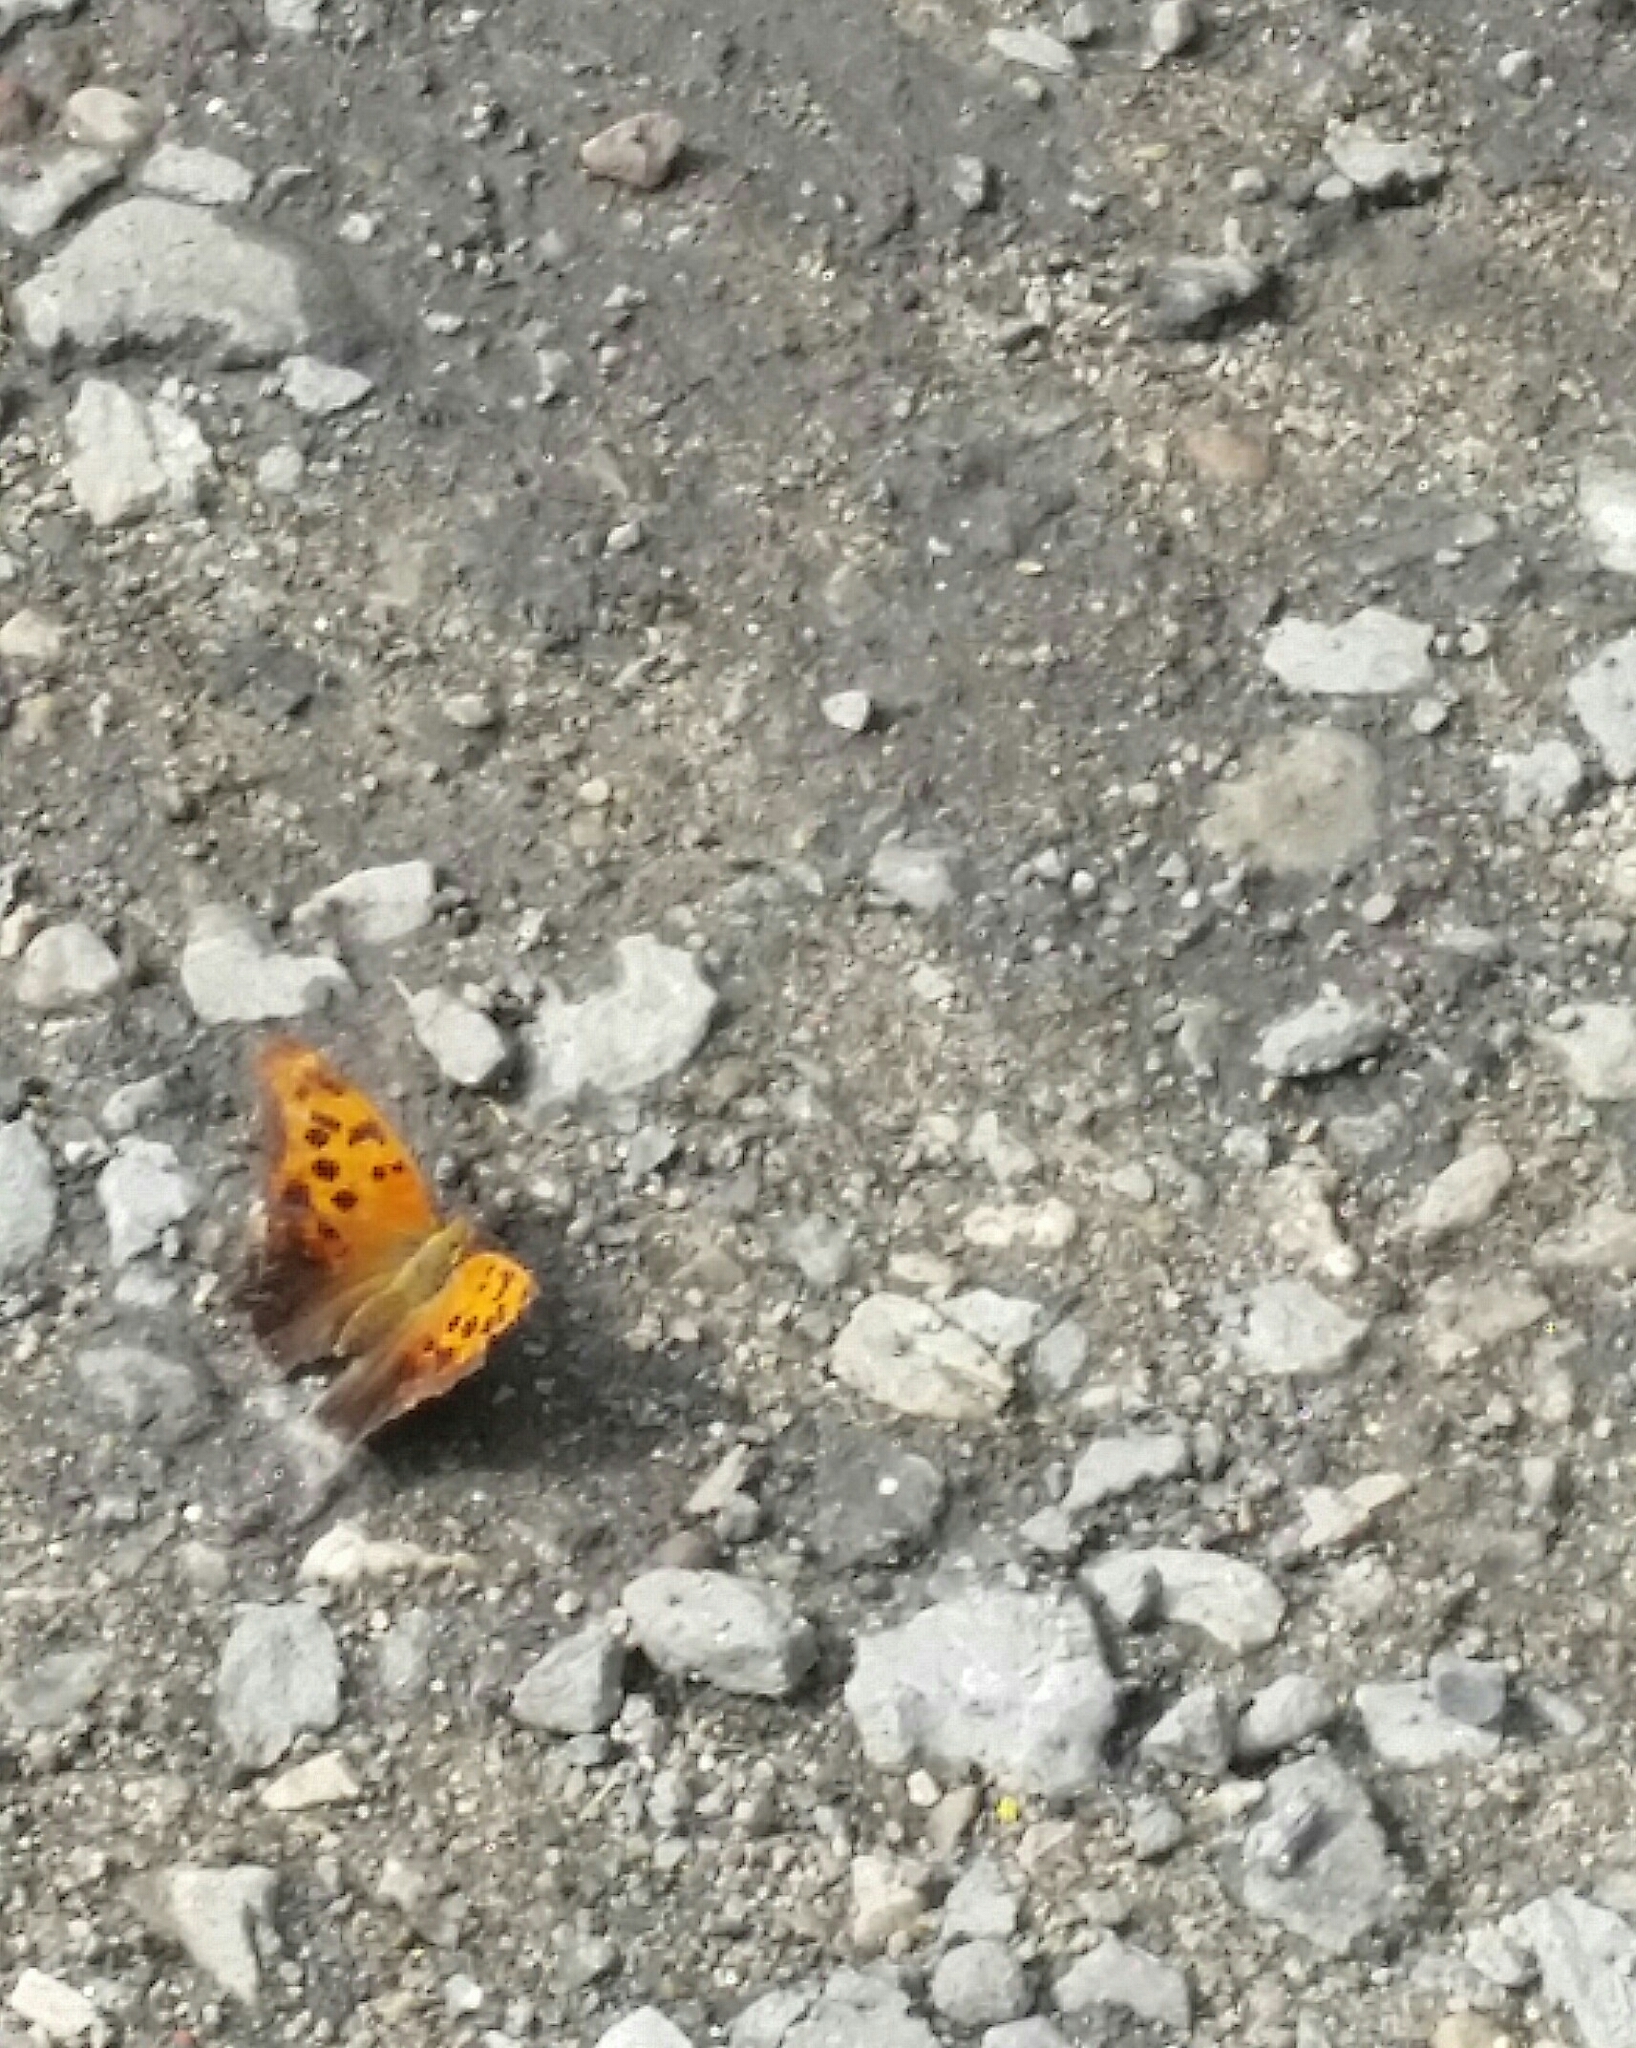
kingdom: Animalia
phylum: Arthropoda
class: Insecta
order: Lepidoptera
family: Nymphalidae
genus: Polygonia
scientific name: Polygonia interrogationis
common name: Question mark
